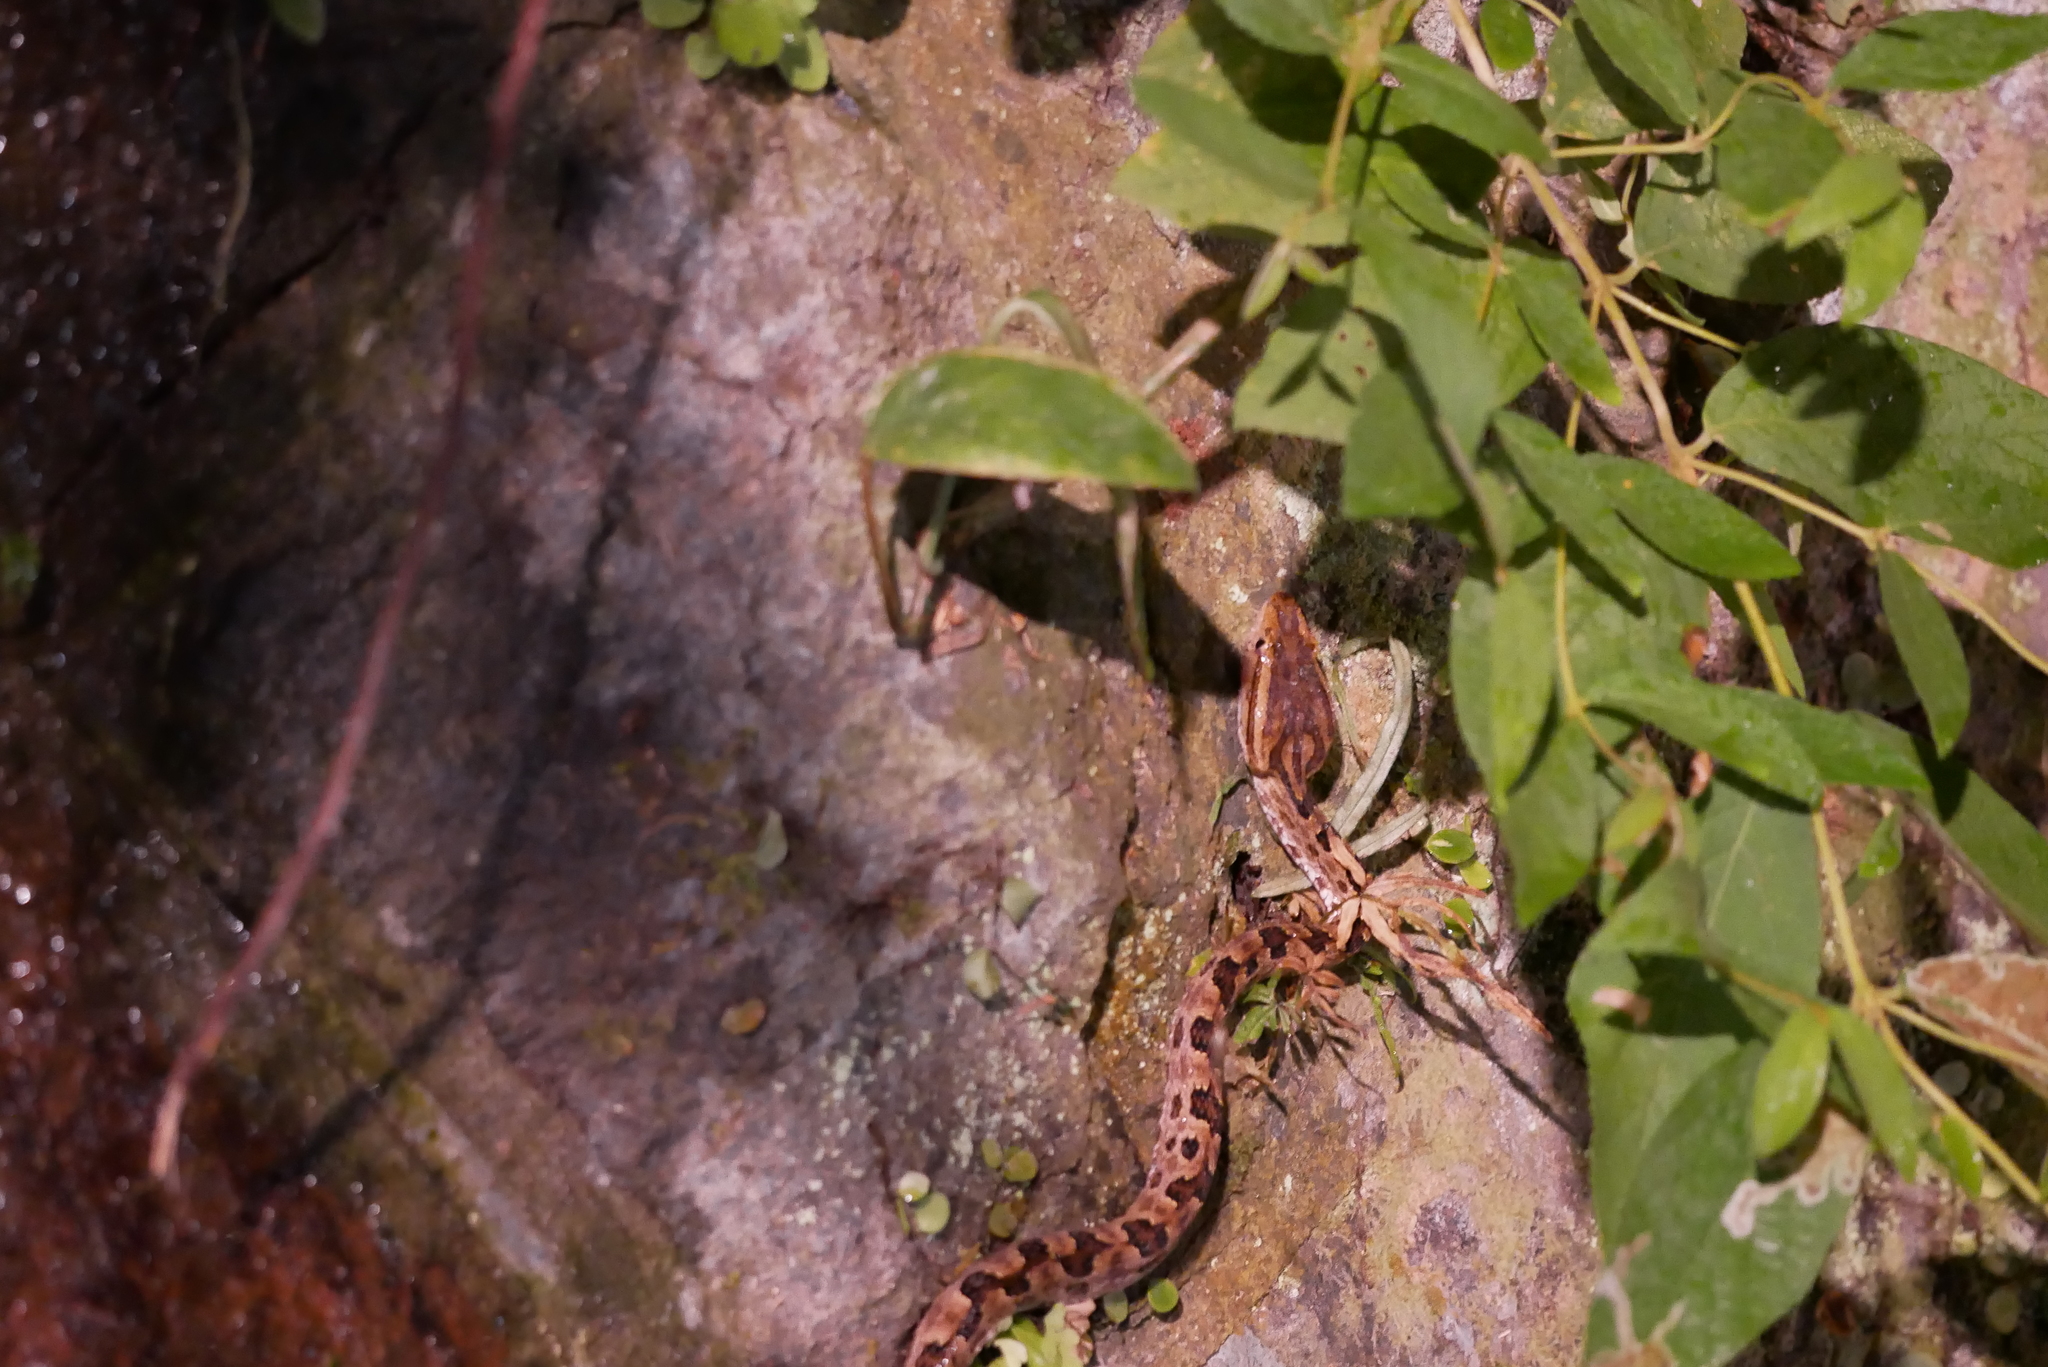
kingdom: Animalia
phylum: Chordata
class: Squamata
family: Viperidae
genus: Protobothrops
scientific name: Protobothrops mucrosquamatus
